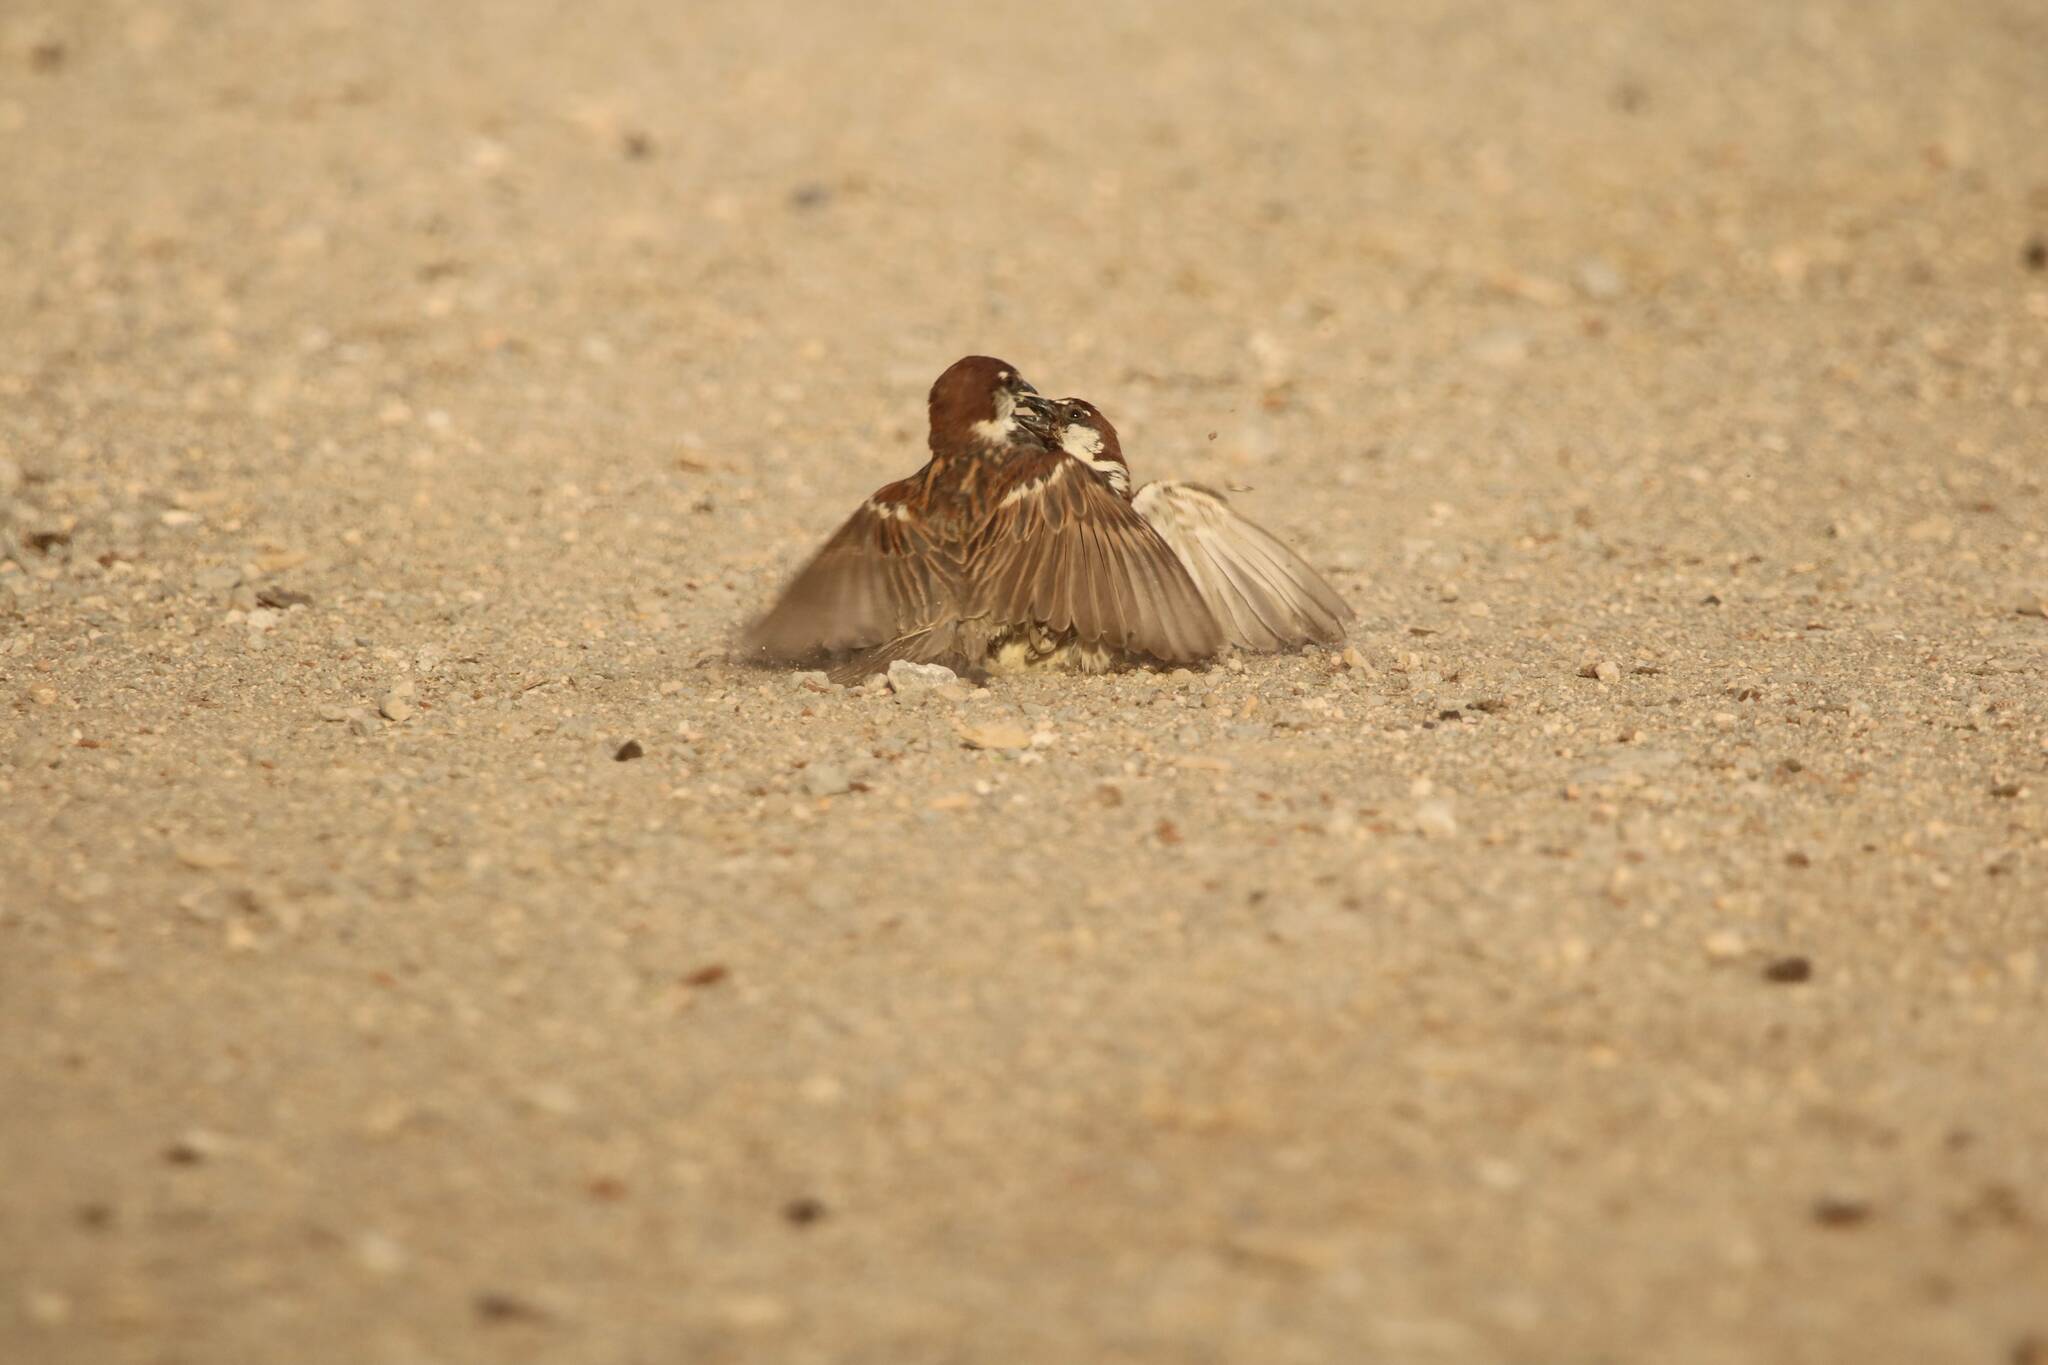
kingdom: Animalia
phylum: Chordata
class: Aves
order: Passeriformes
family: Passeridae
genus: Passer
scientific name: Passer hispaniolensis
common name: Spanish sparrow
